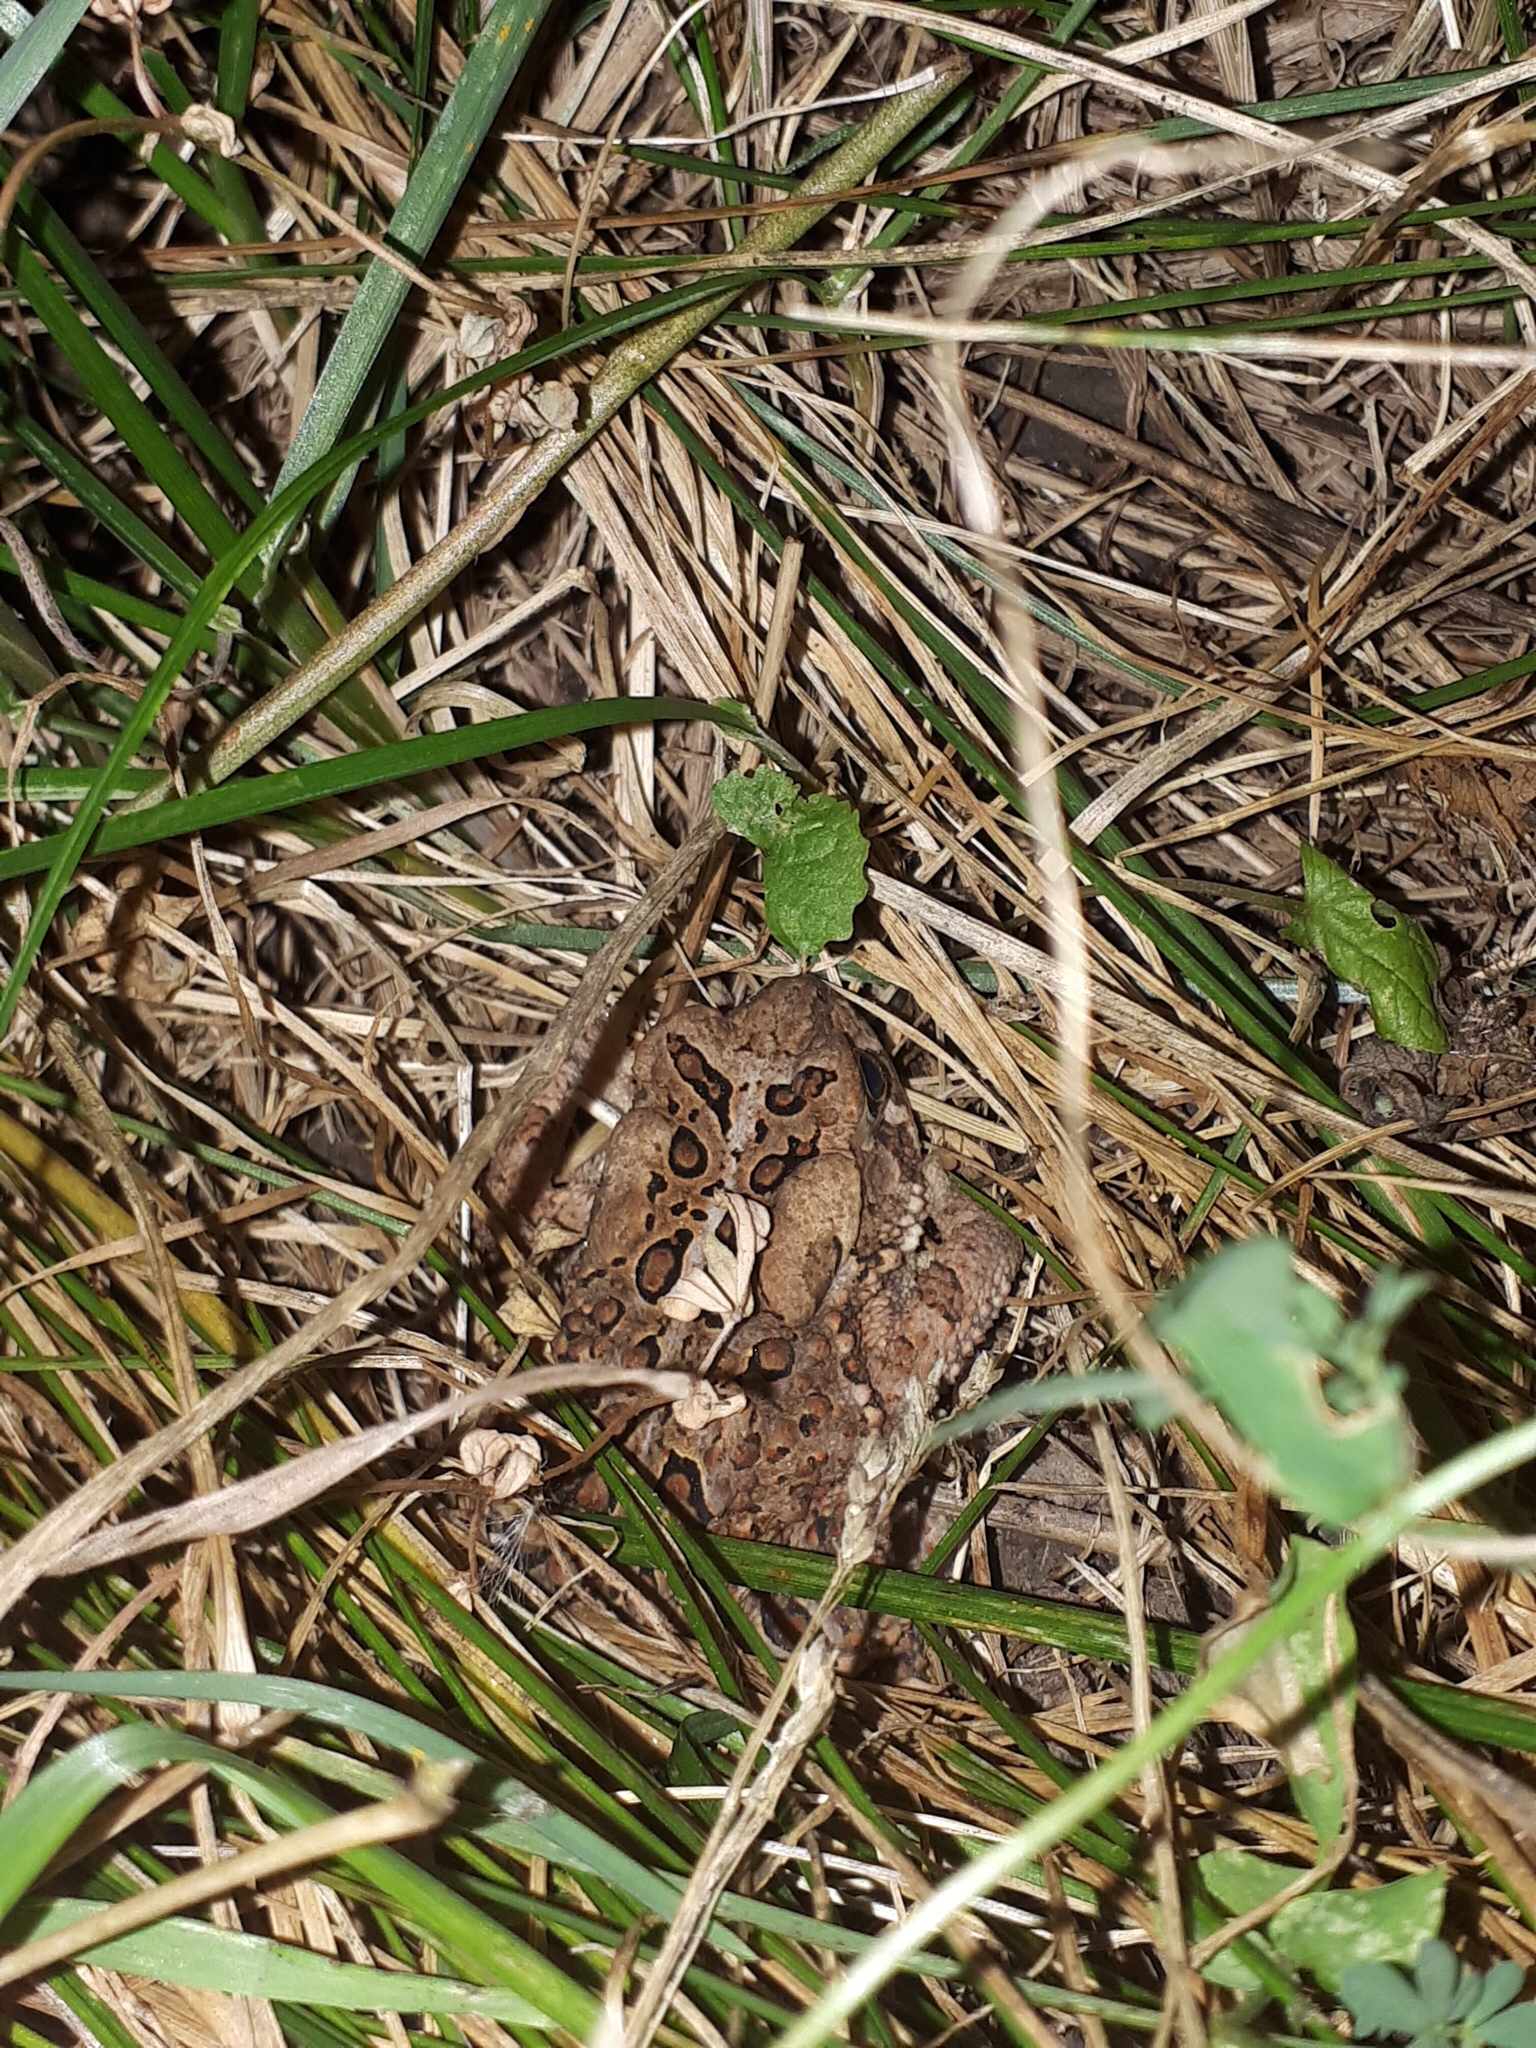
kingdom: Animalia
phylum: Chordata
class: Amphibia
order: Anura
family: Bufonidae
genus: Anaxyrus
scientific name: Anaxyrus americanus
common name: American toad
